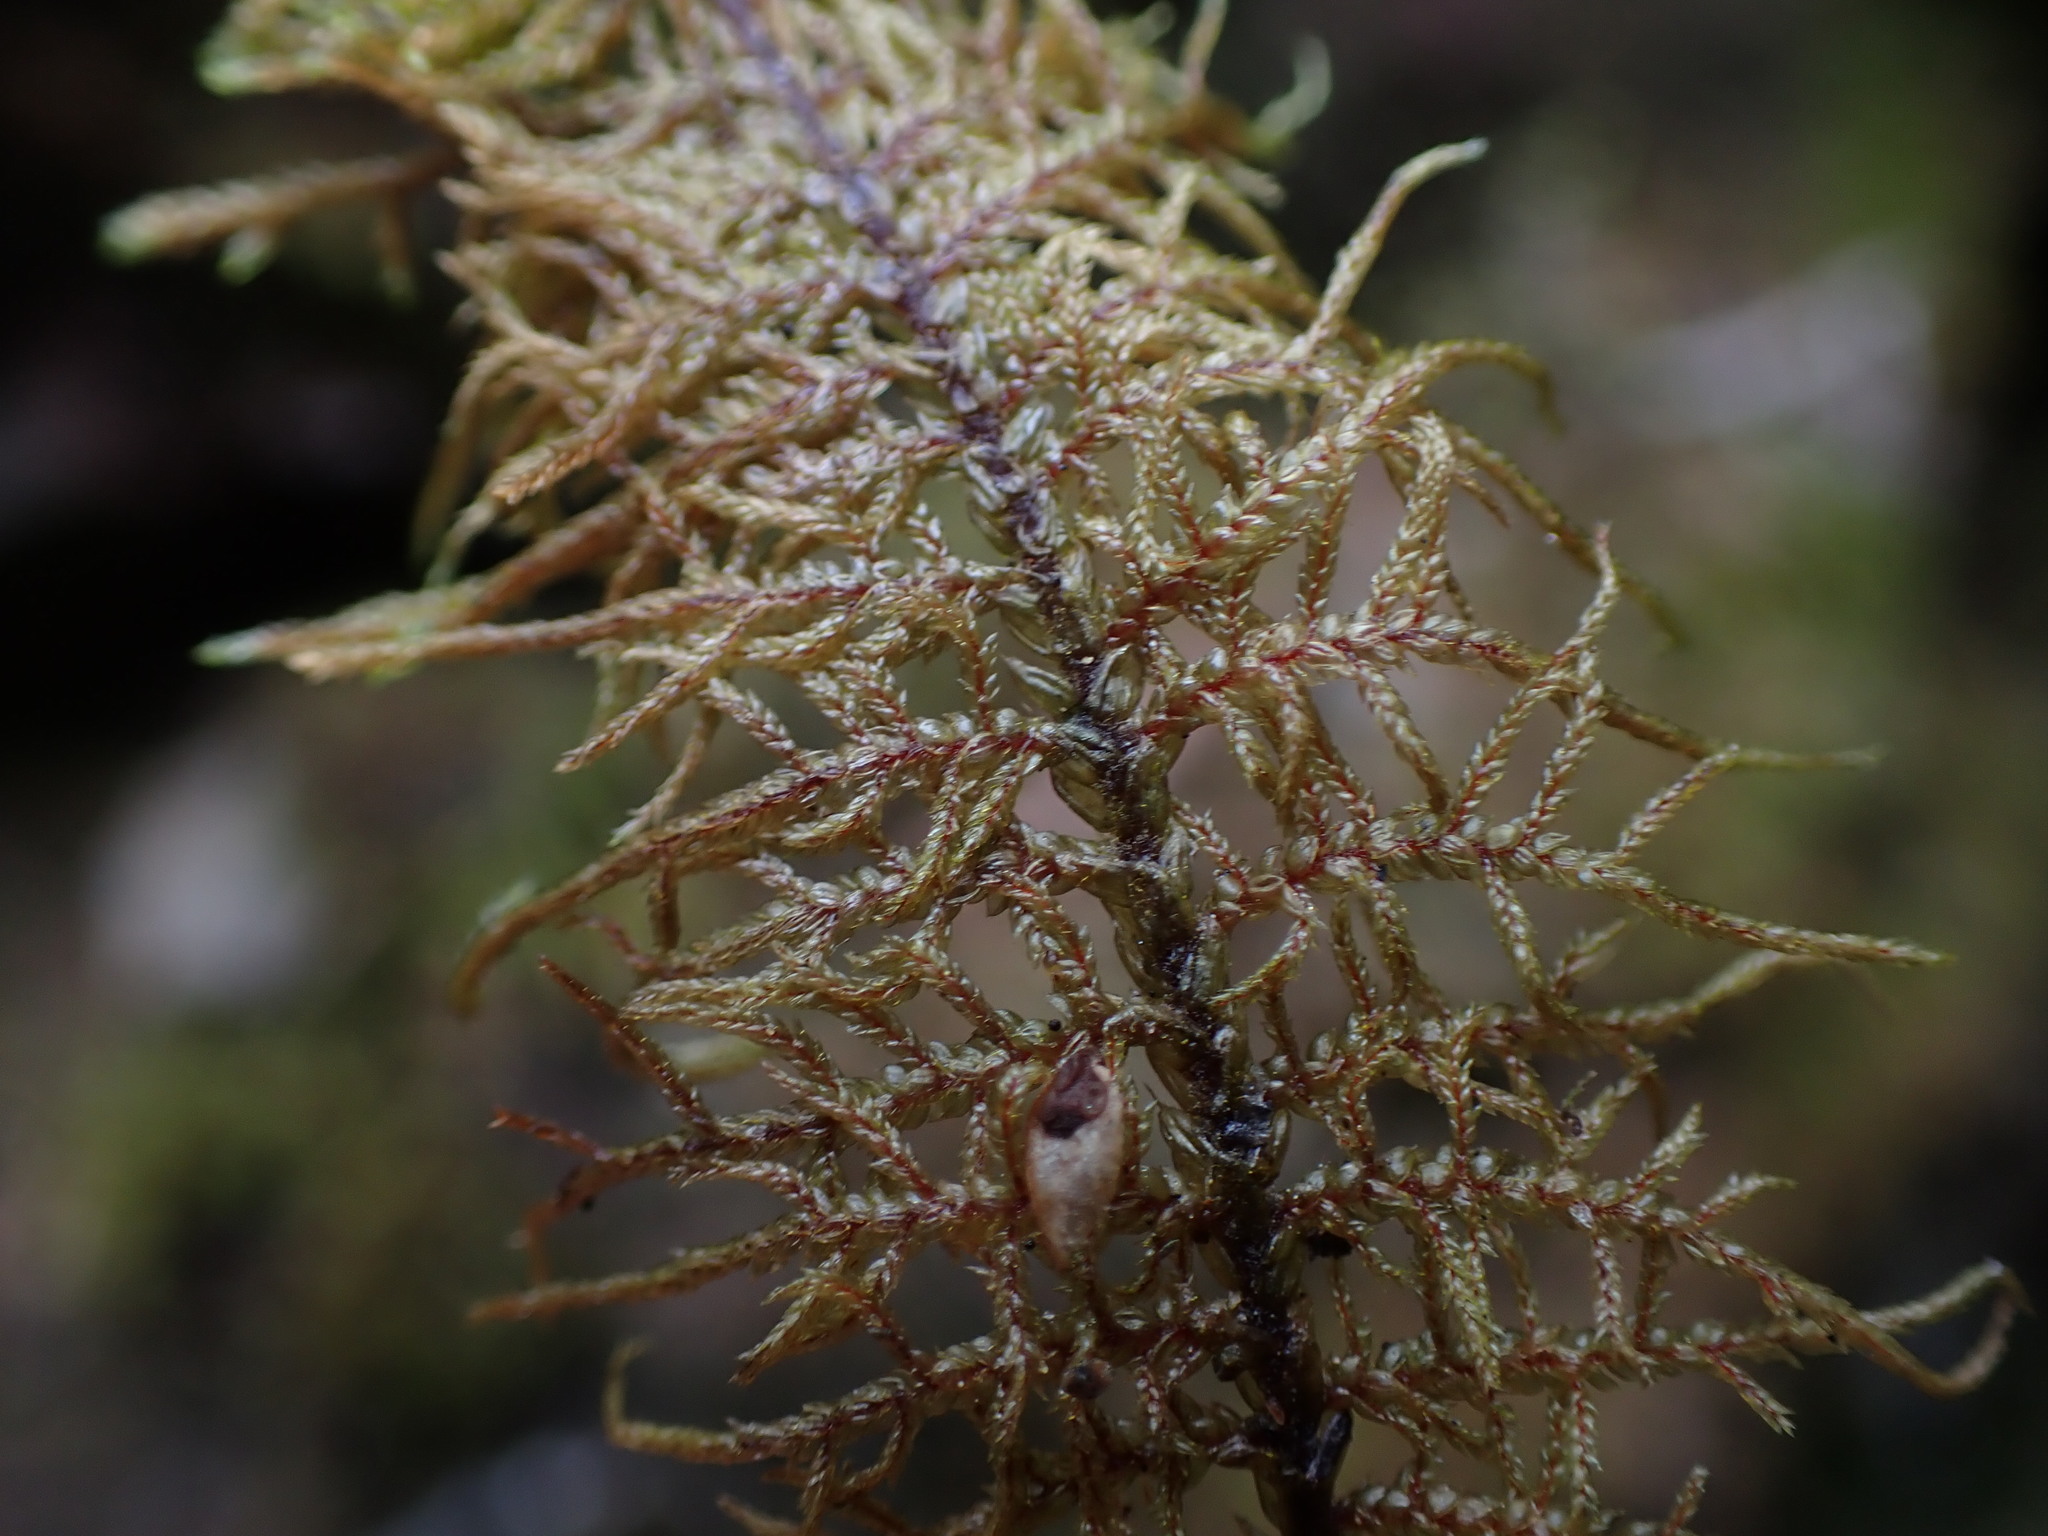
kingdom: Plantae
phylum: Bryophyta
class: Bryopsida
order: Hypnales
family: Hylocomiaceae
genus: Hylocomium
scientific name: Hylocomium splendens
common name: Stairstep moss
